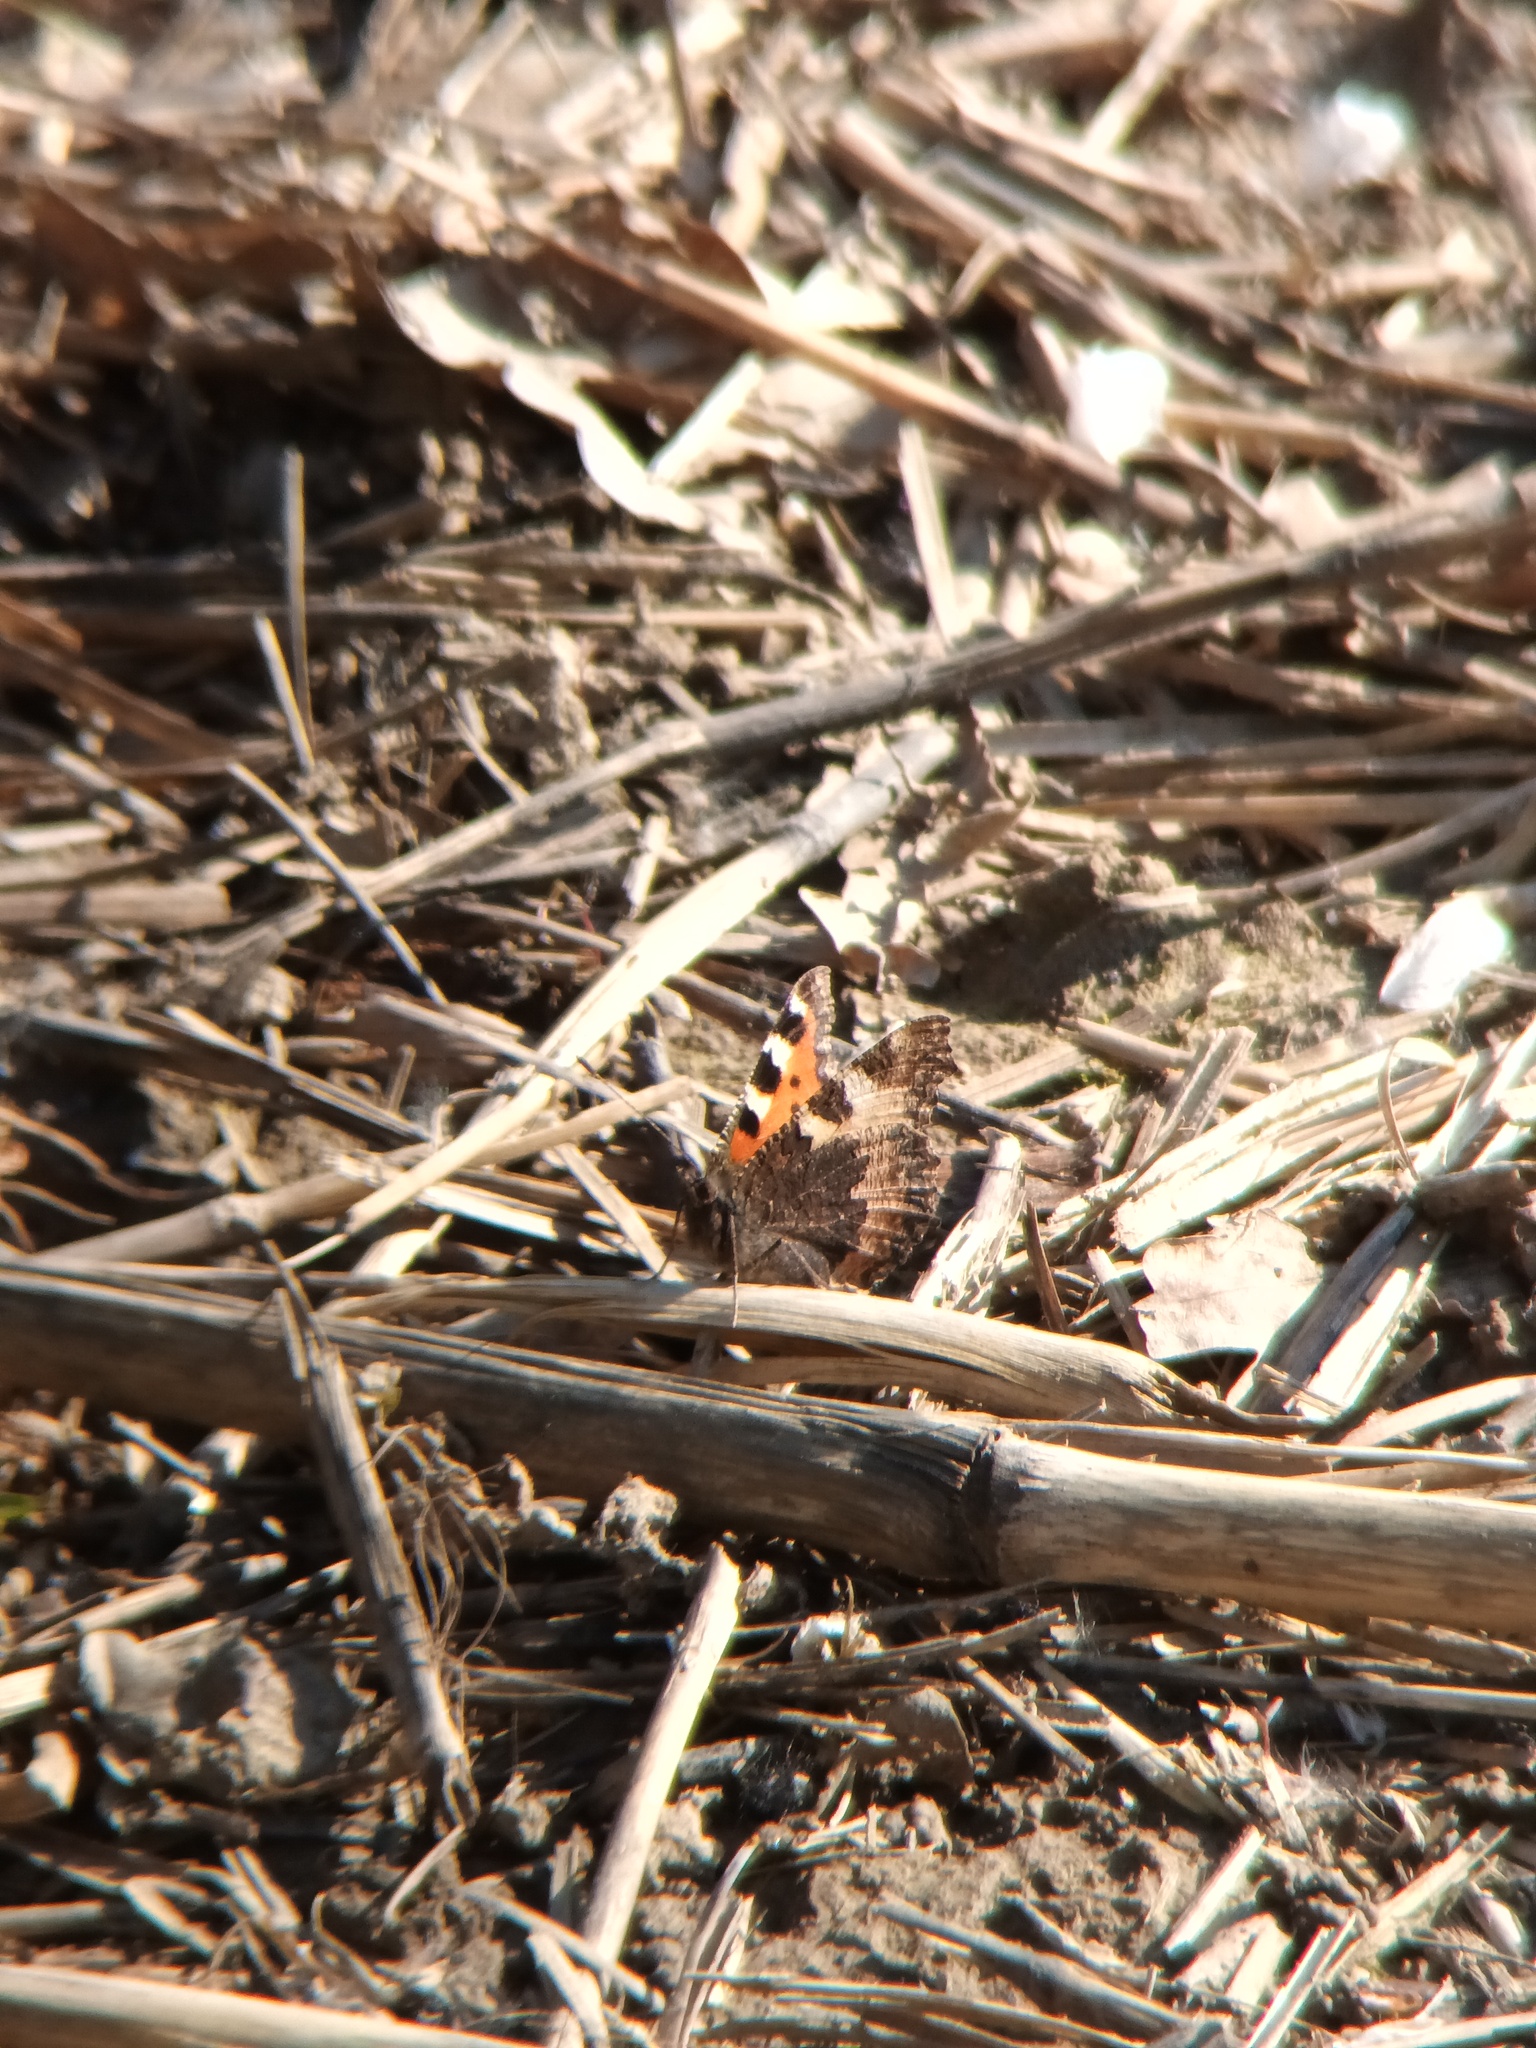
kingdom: Animalia
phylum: Arthropoda
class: Insecta
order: Lepidoptera
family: Nymphalidae
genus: Aglais
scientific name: Aglais urticae
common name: Small tortoiseshell
